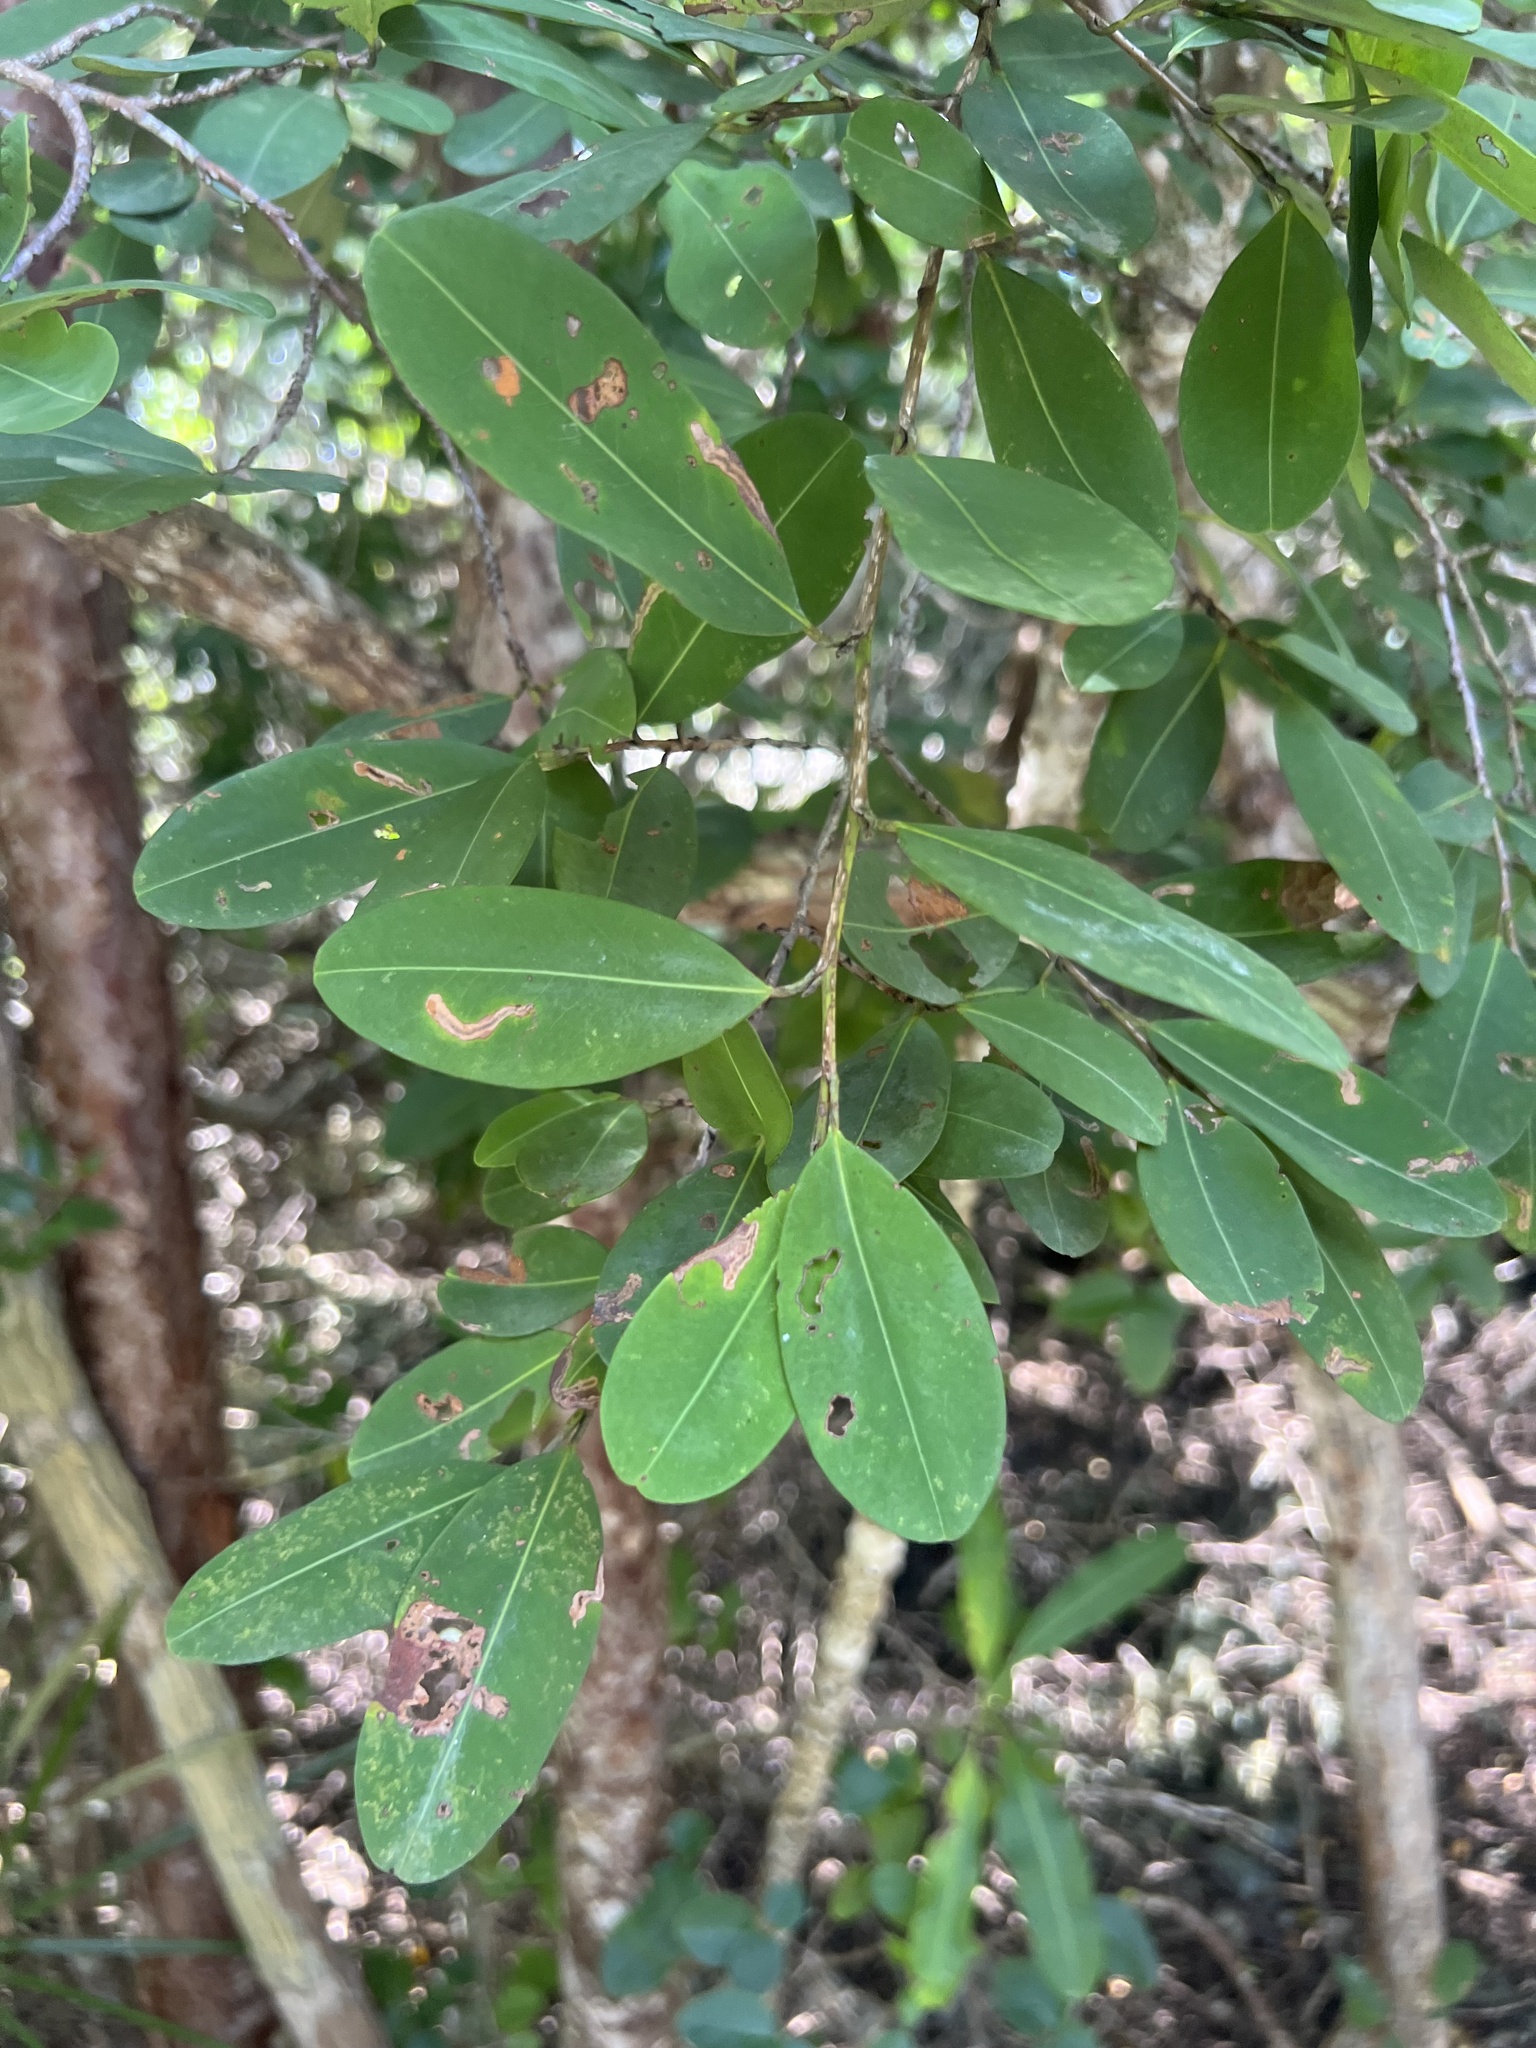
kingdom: Plantae
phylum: Tracheophyta
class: Magnoliopsida
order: Malpighiales
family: Erythroxylaceae
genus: Erythroxylum
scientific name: Erythroxylum areolatum
